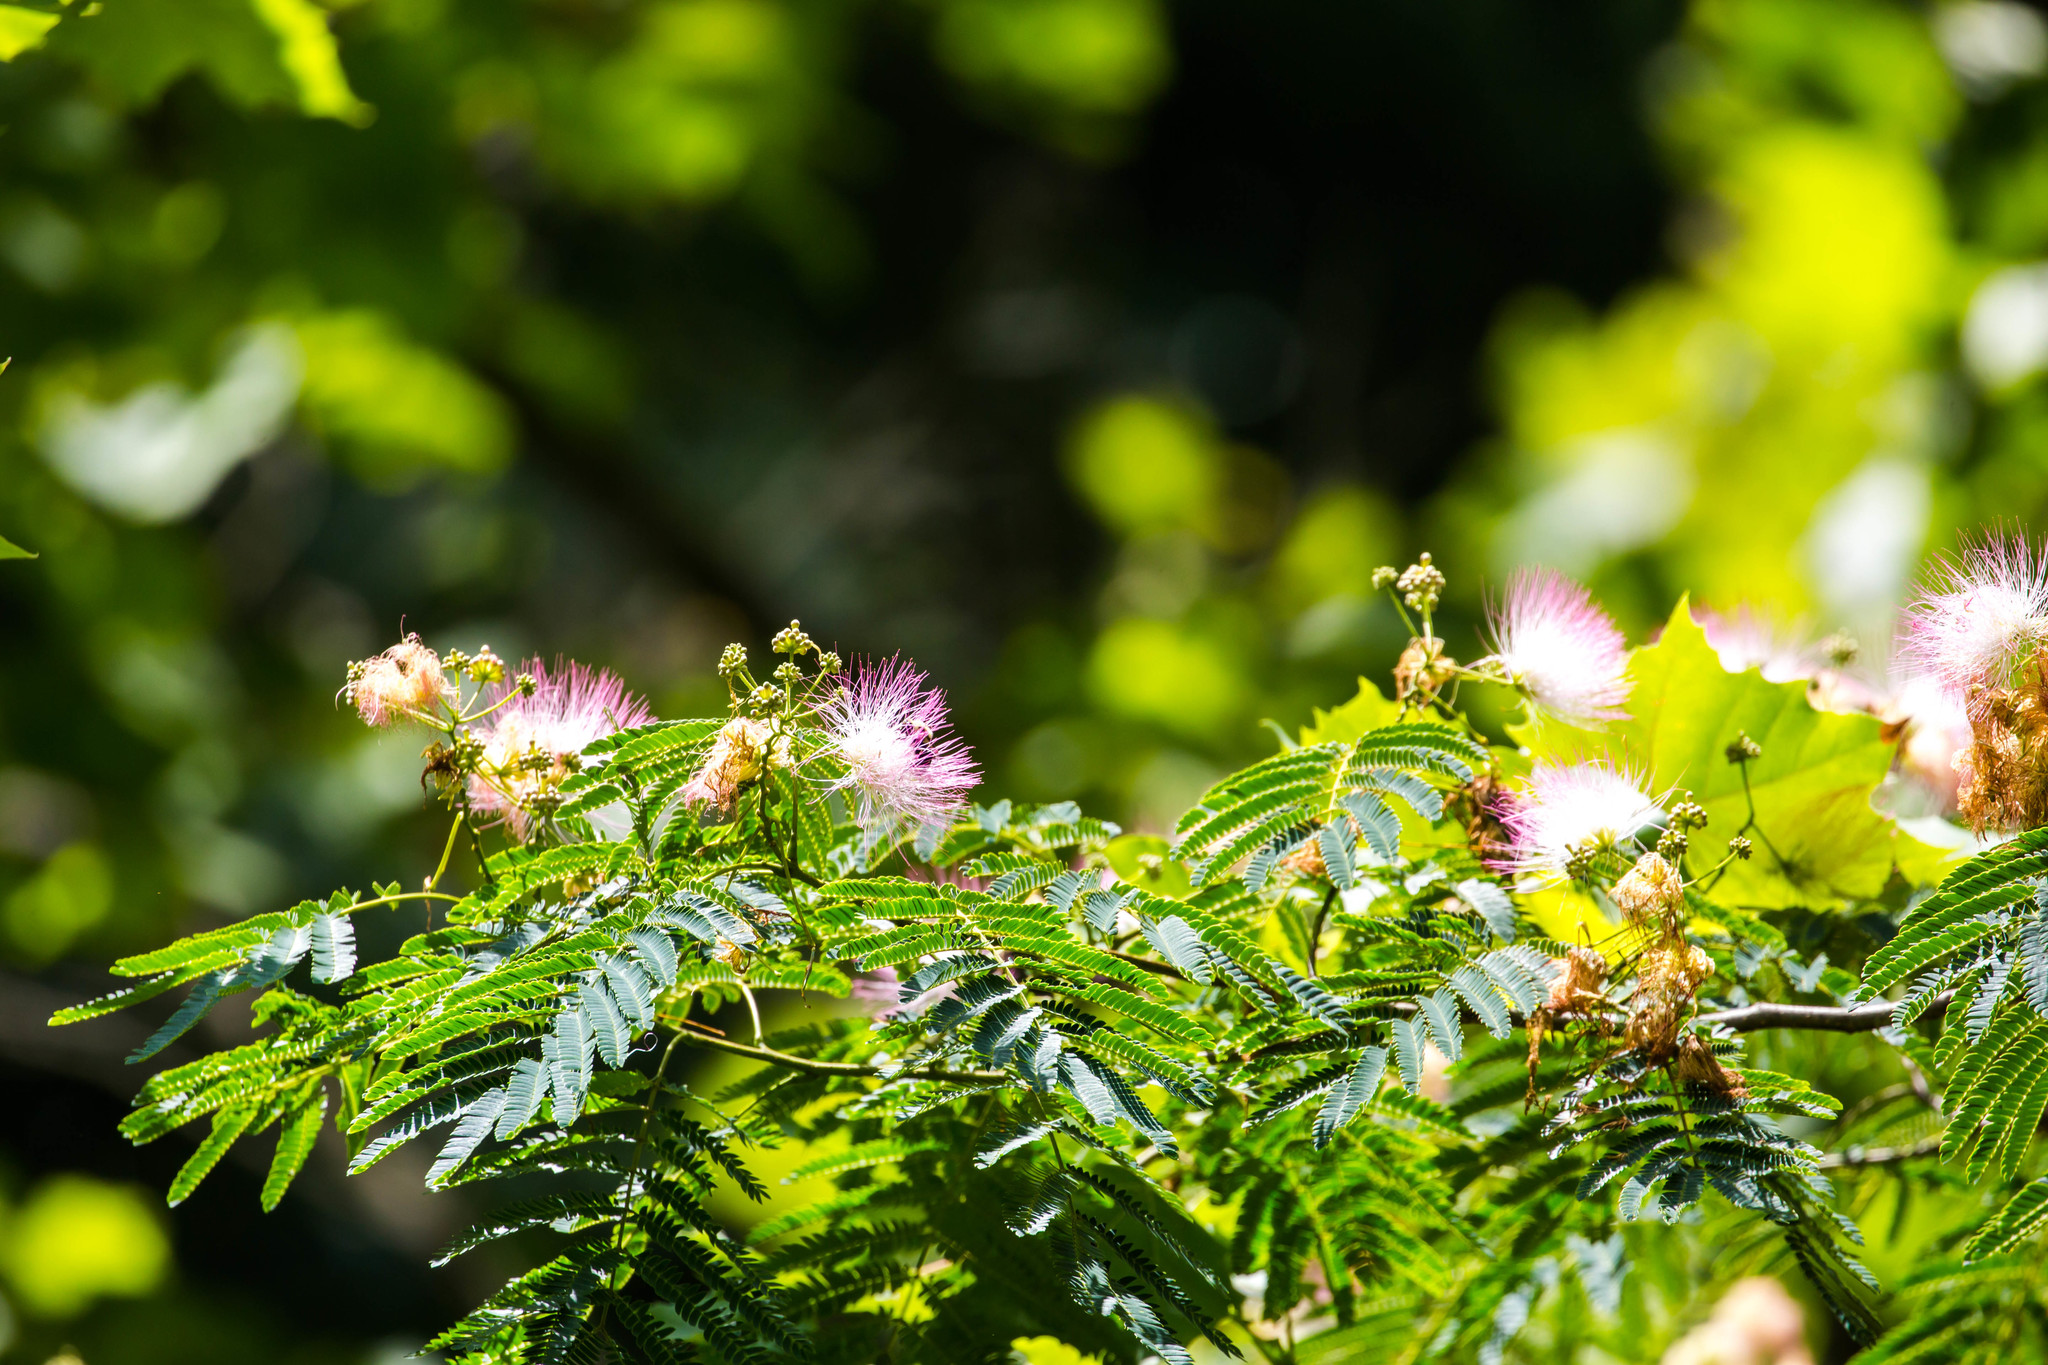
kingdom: Plantae
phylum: Tracheophyta
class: Magnoliopsida
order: Fabales
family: Fabaceae
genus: Albizia
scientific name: Albizia julibrissin
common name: Silktree
